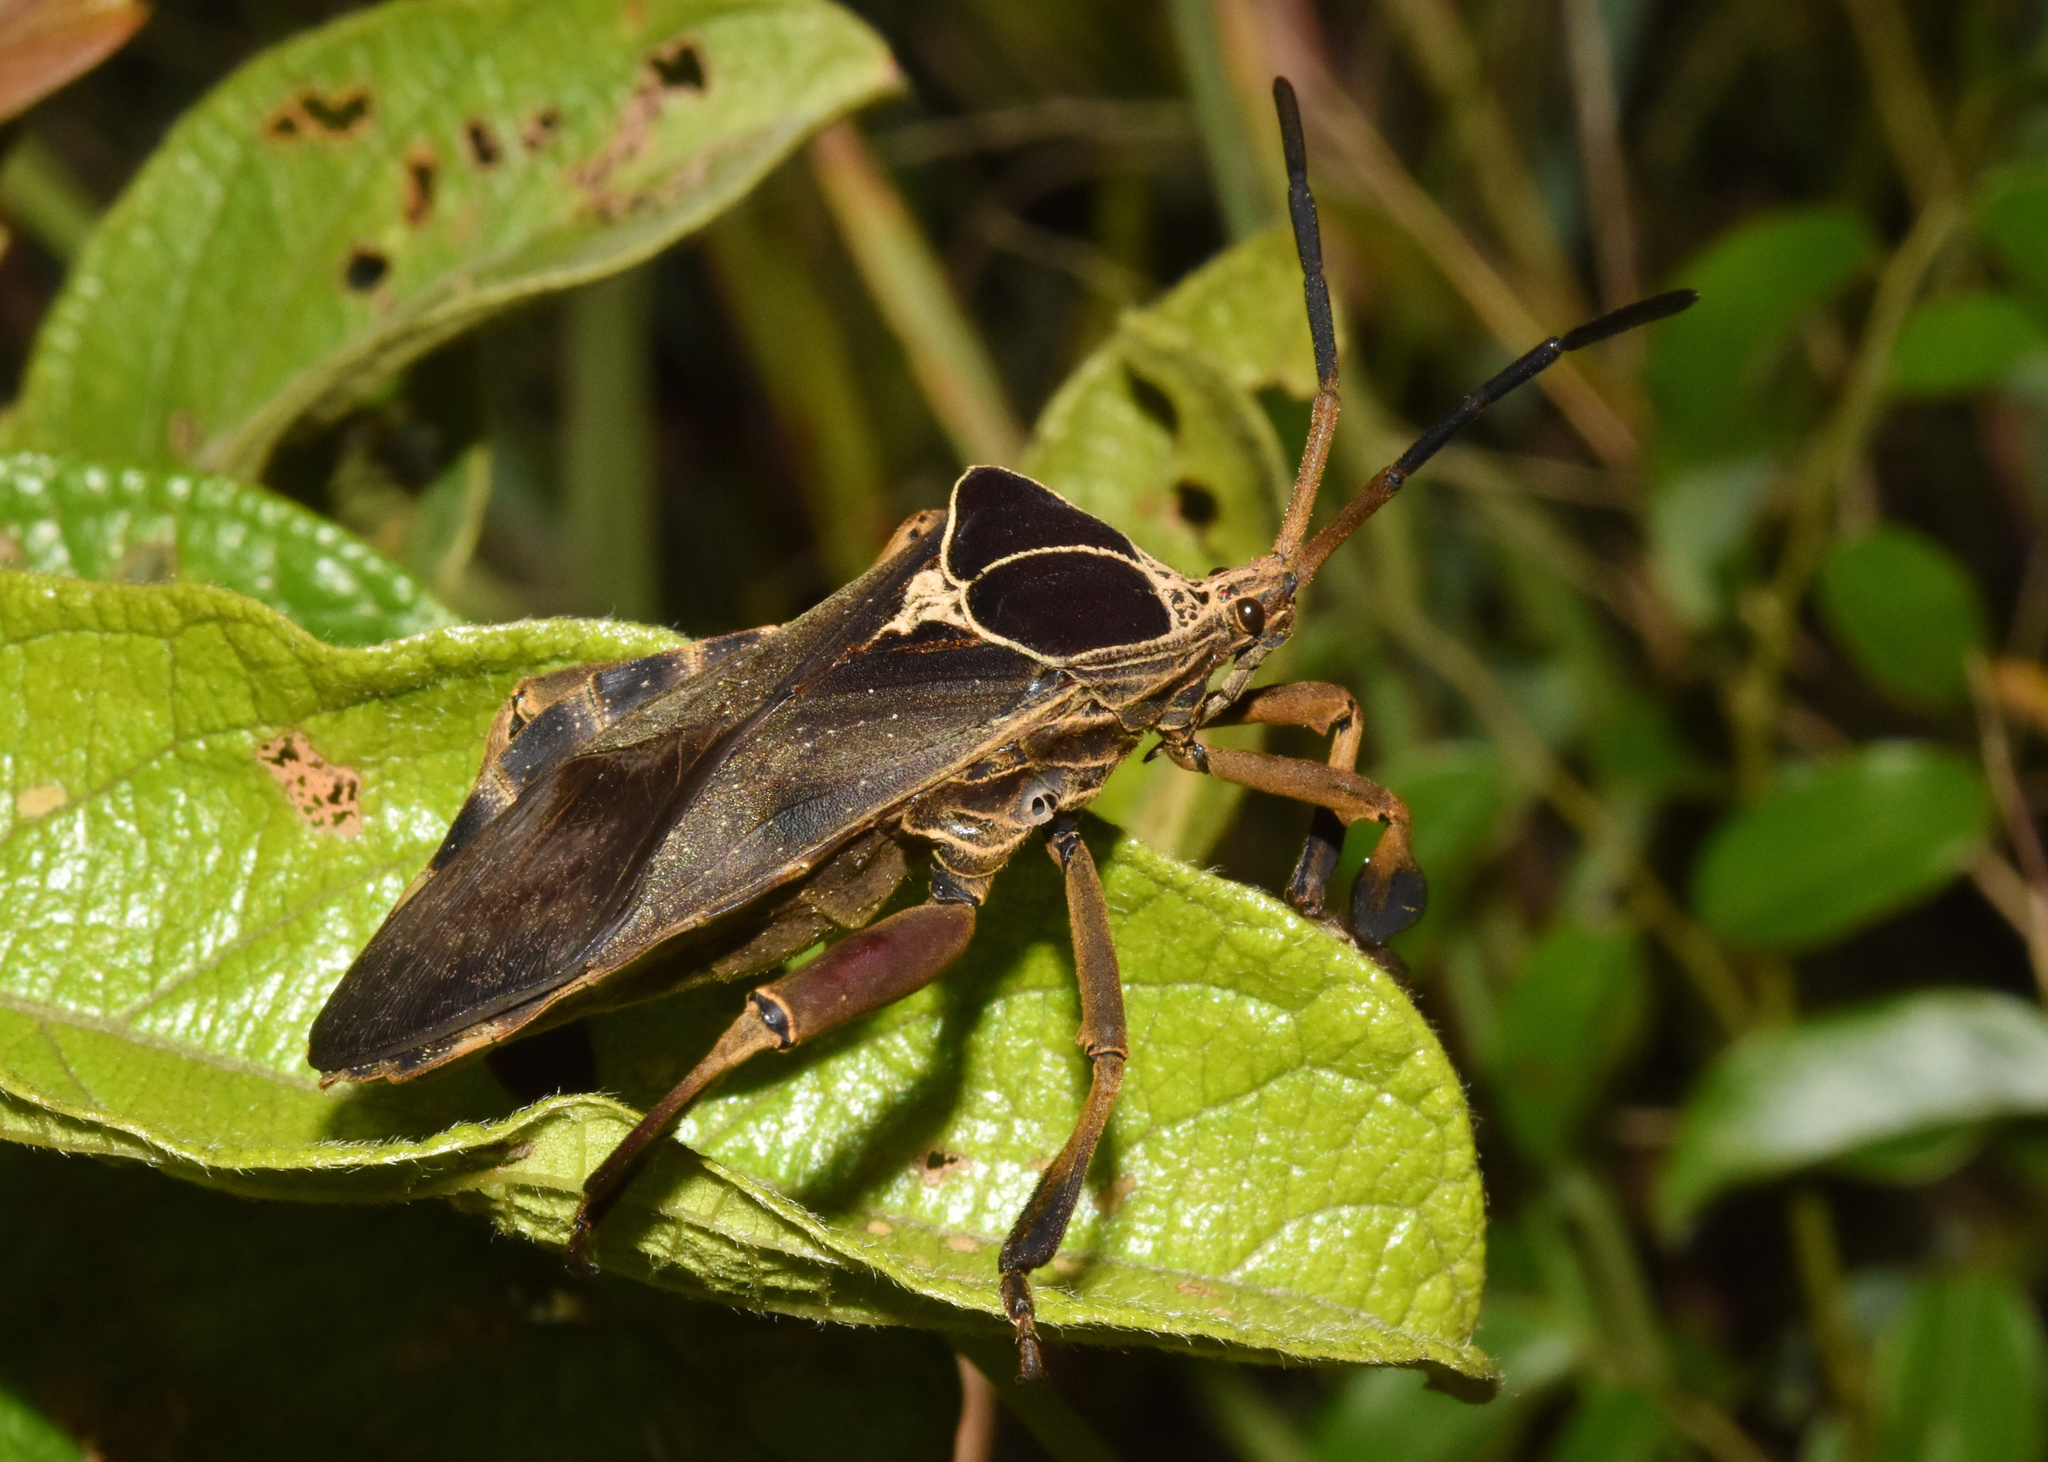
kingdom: Animalia
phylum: Arthropoda
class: Insecta
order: Hemiptera
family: Coreidae
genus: Petascelis
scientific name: Petascelis remipes
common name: Giant twig wilter
